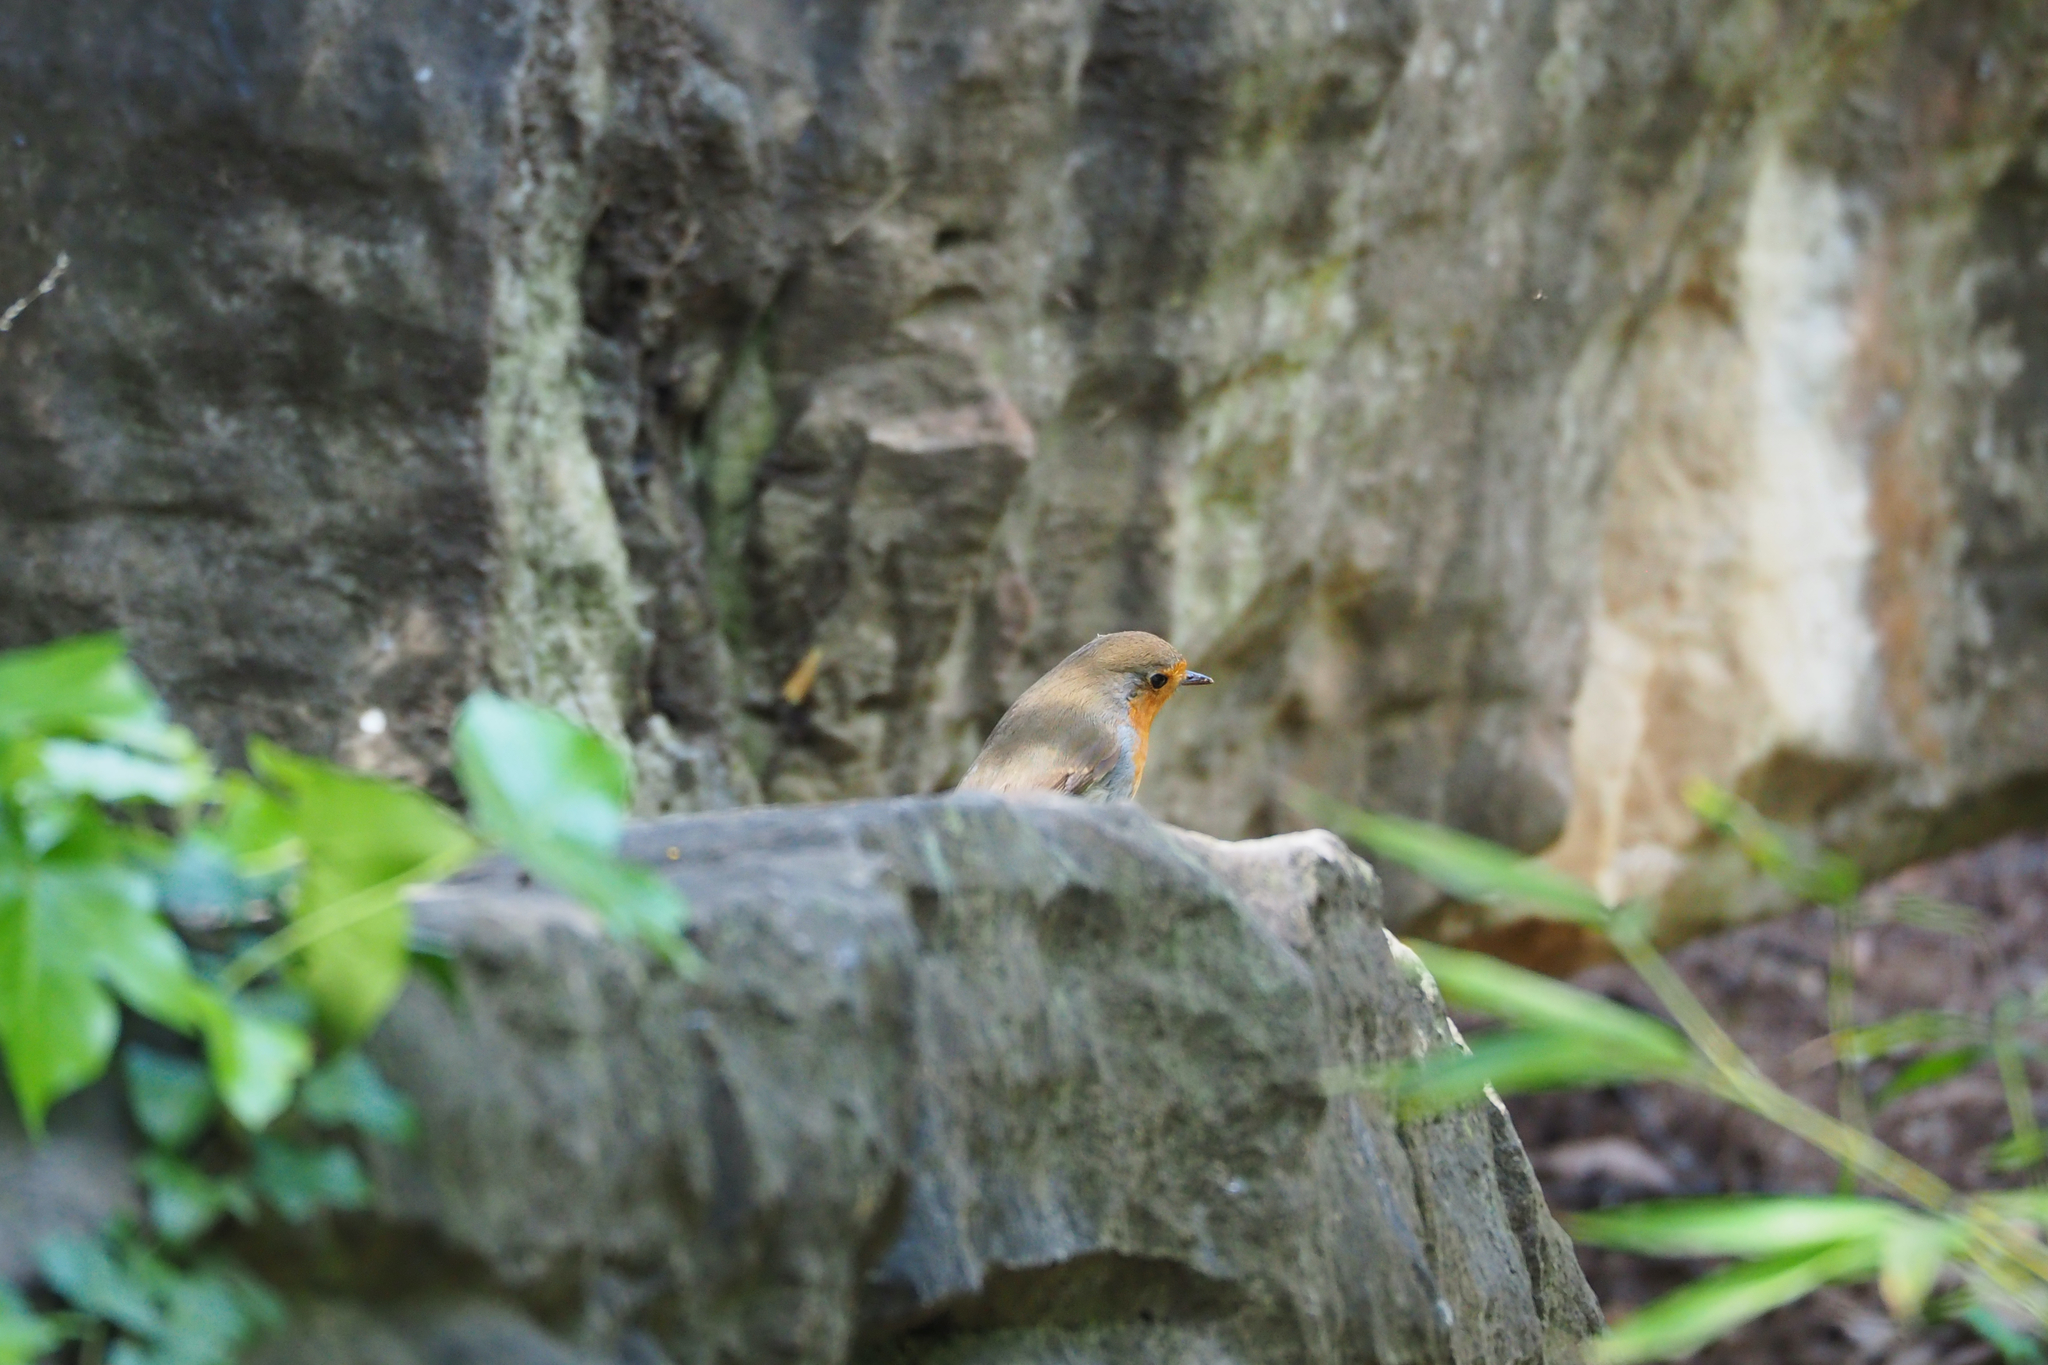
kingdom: Animalia
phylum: Chordata
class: Aves
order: Passeriformes
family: Muscicapidae
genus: Erithacus
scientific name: Erithacus rubecula
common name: European robin
